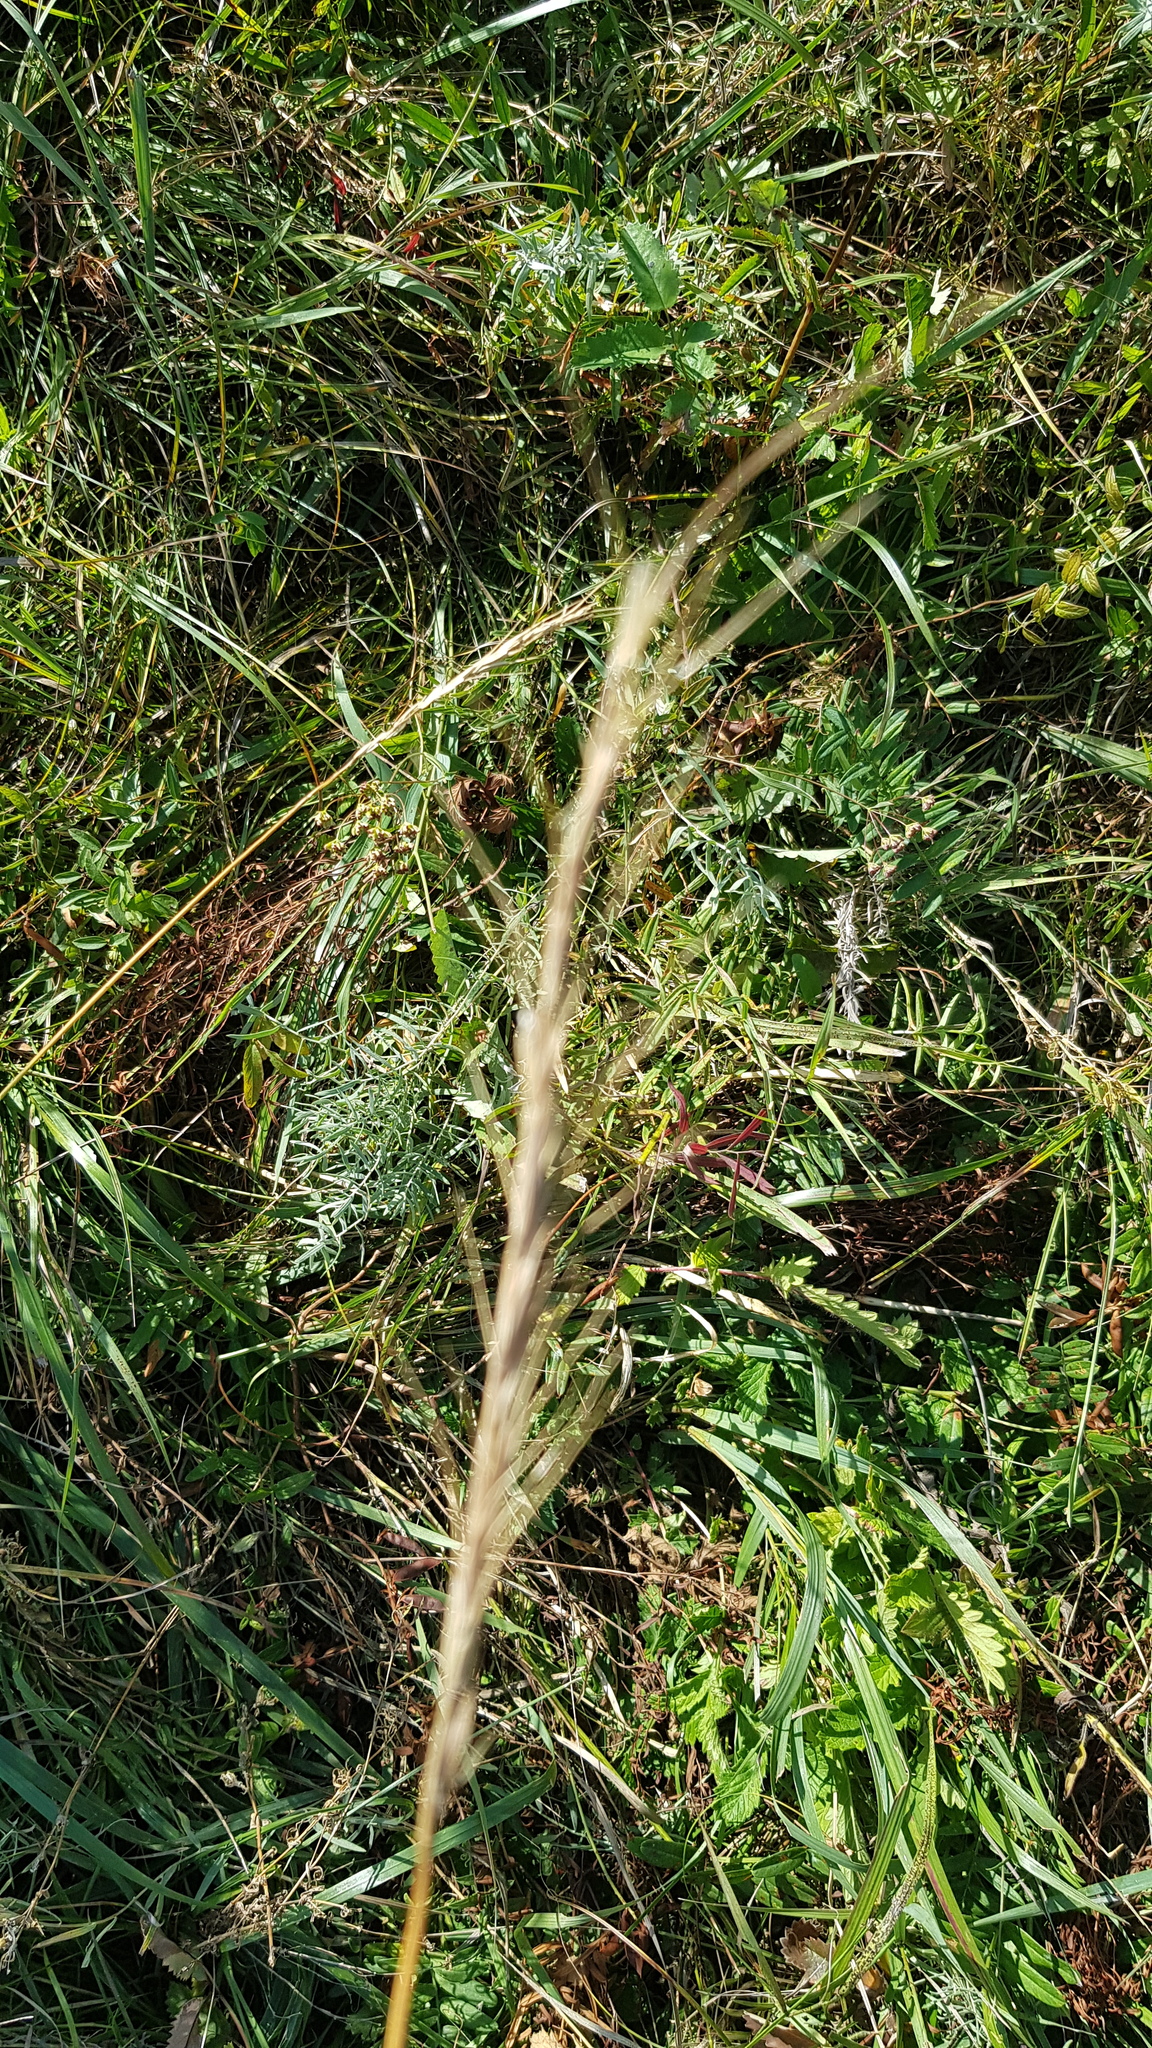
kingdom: Plantae
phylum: Tracheophyta
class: Magnoliopsida
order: Asterales
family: Asteraceae
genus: Klasea
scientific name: Klasea centauroides
